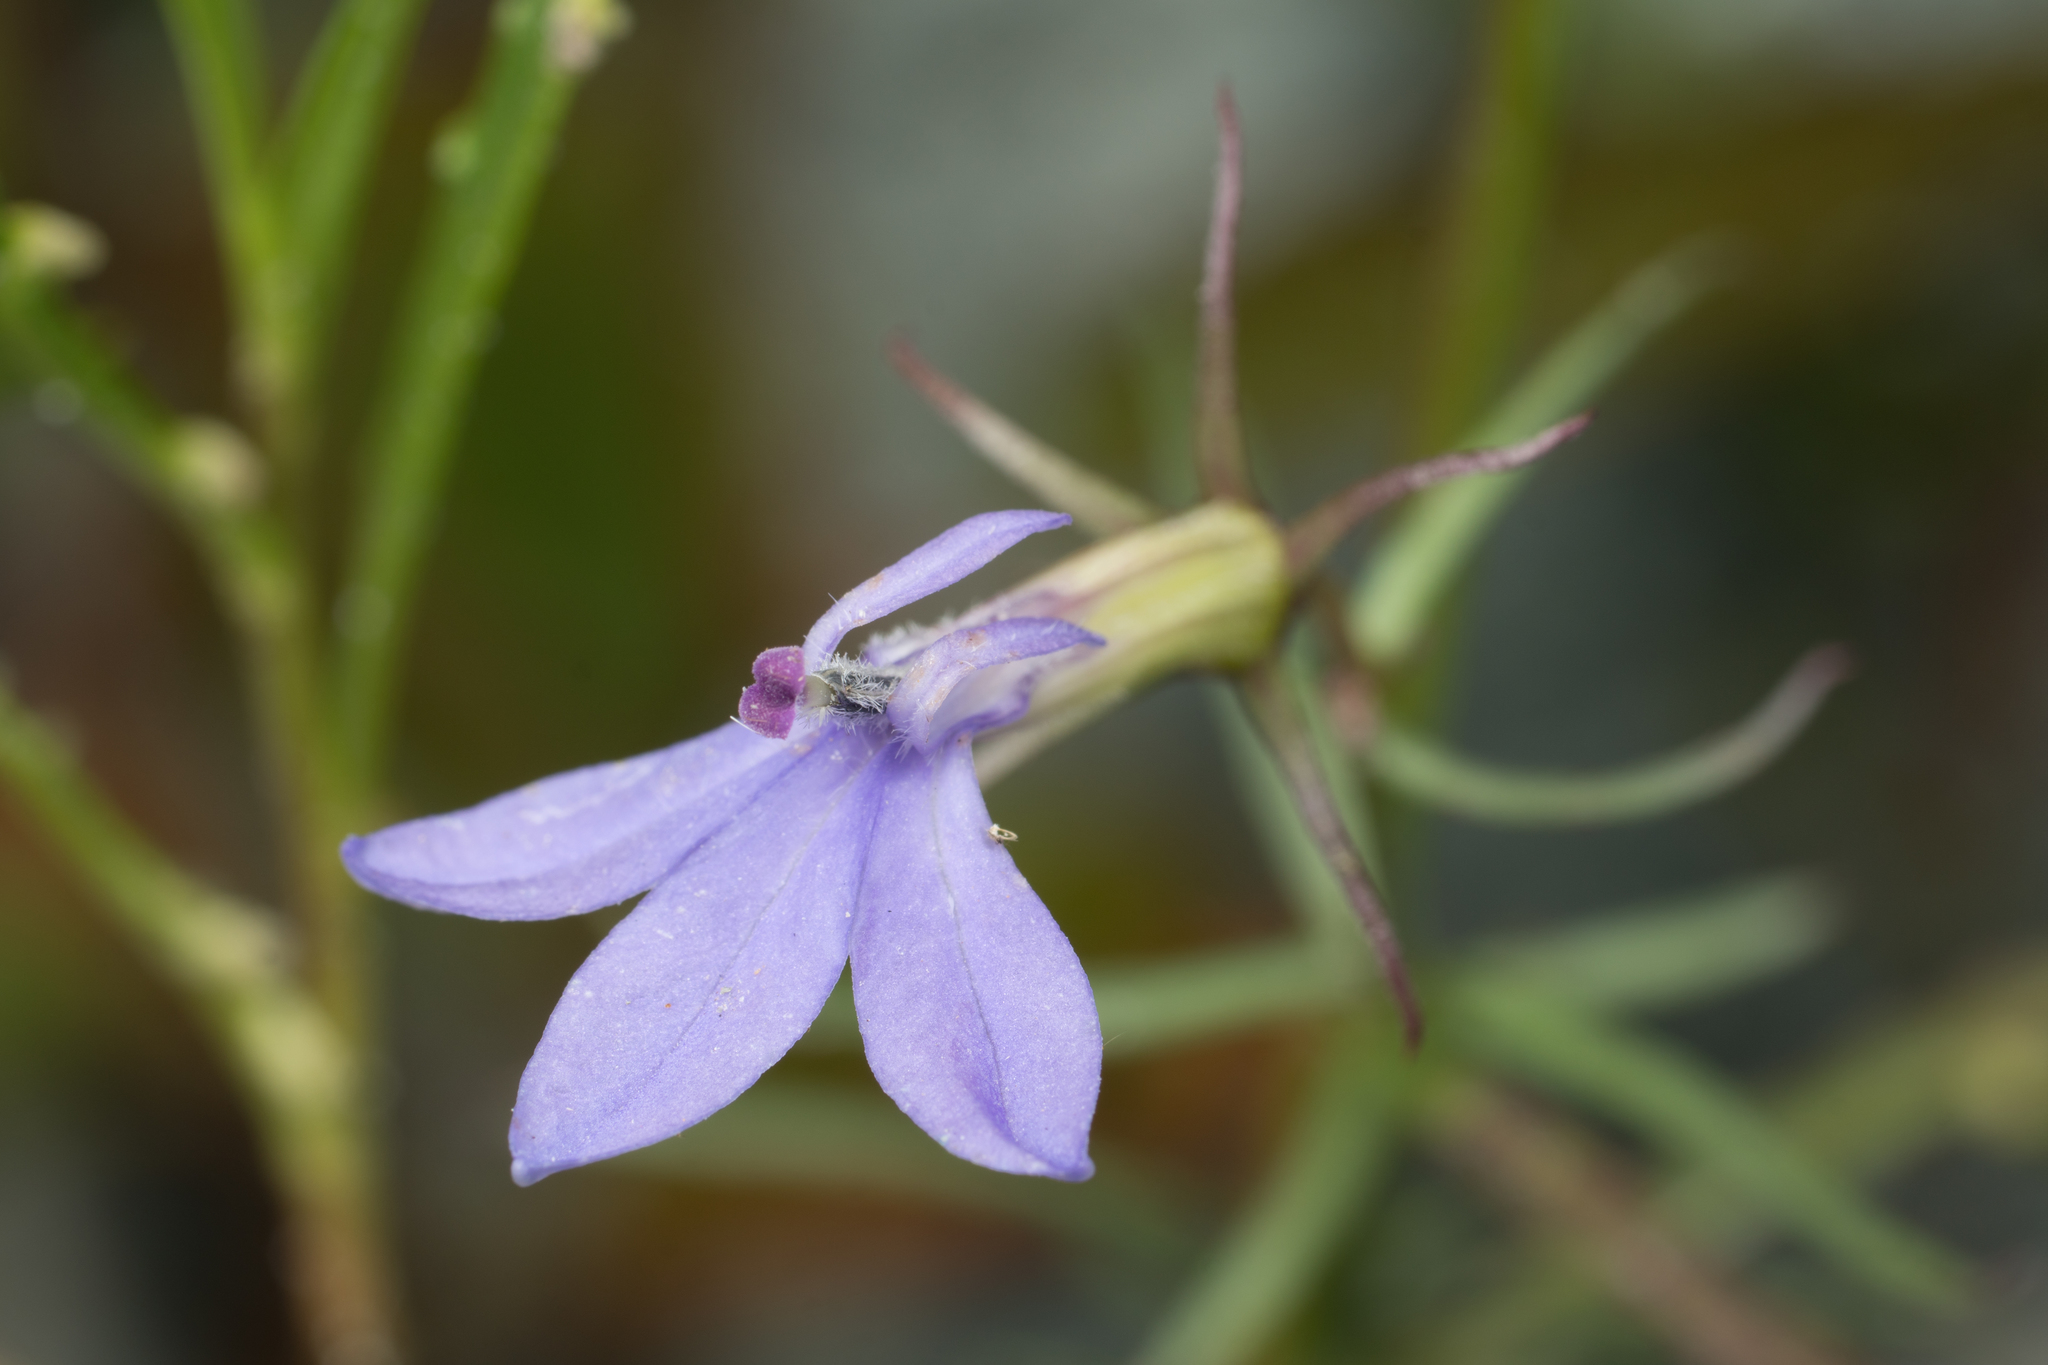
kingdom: Plantae
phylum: Tracheophyta
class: Magnoliopsida
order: Asterales
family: Campanulaceae
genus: Palmerella
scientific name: Palmerella debilis
